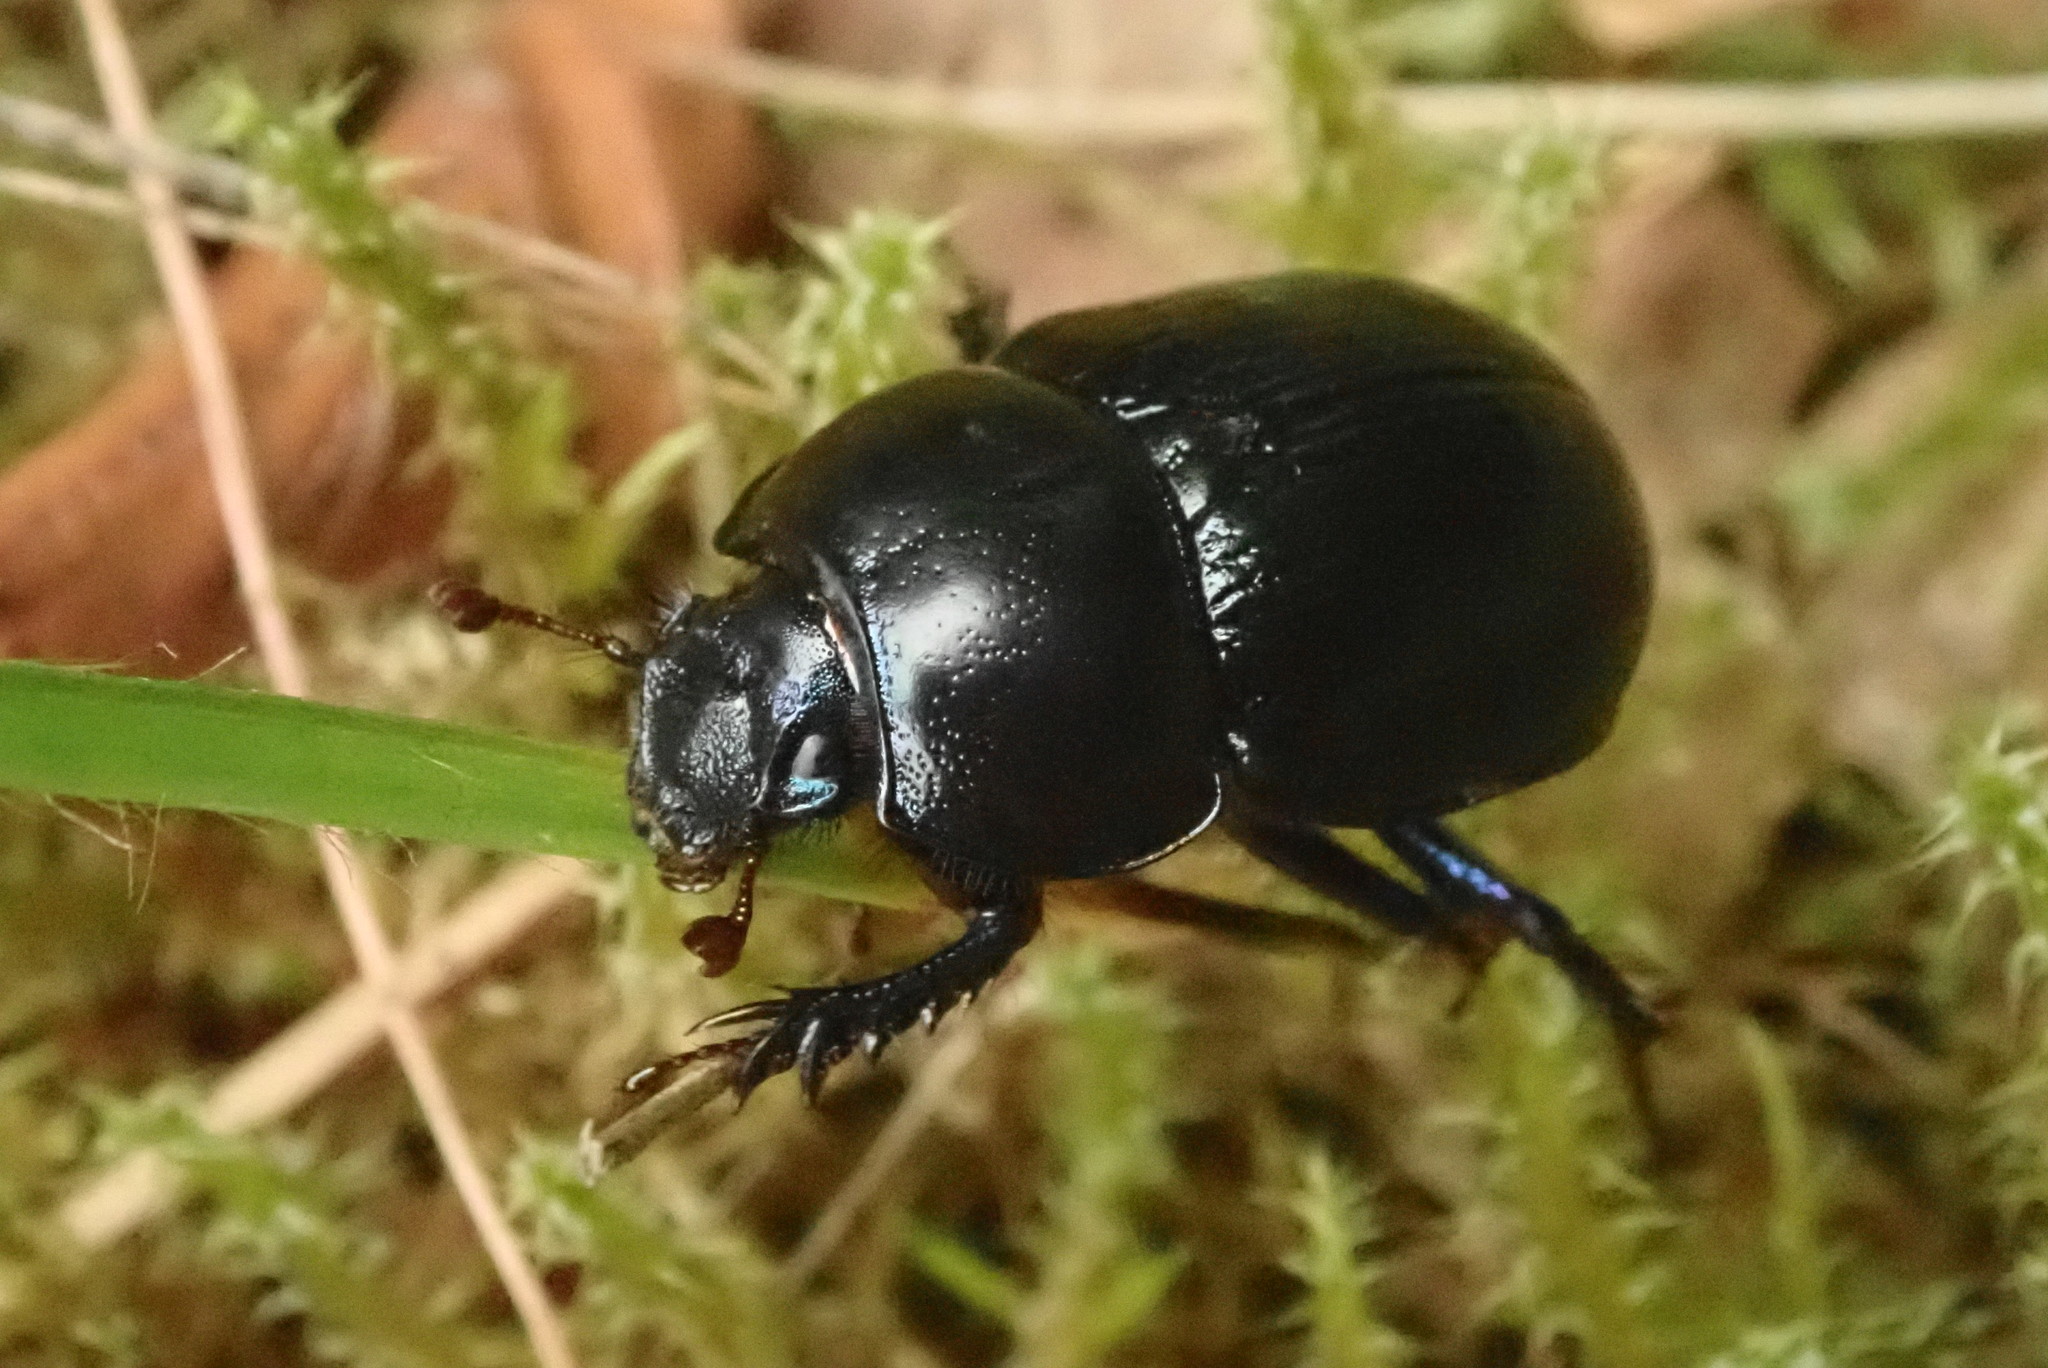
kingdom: Animalia
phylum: Arthropoda
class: Insecta
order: Coleoptera
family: Geotrupidae
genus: Anoplotrupes
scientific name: Anoplotrupes stercorosus
